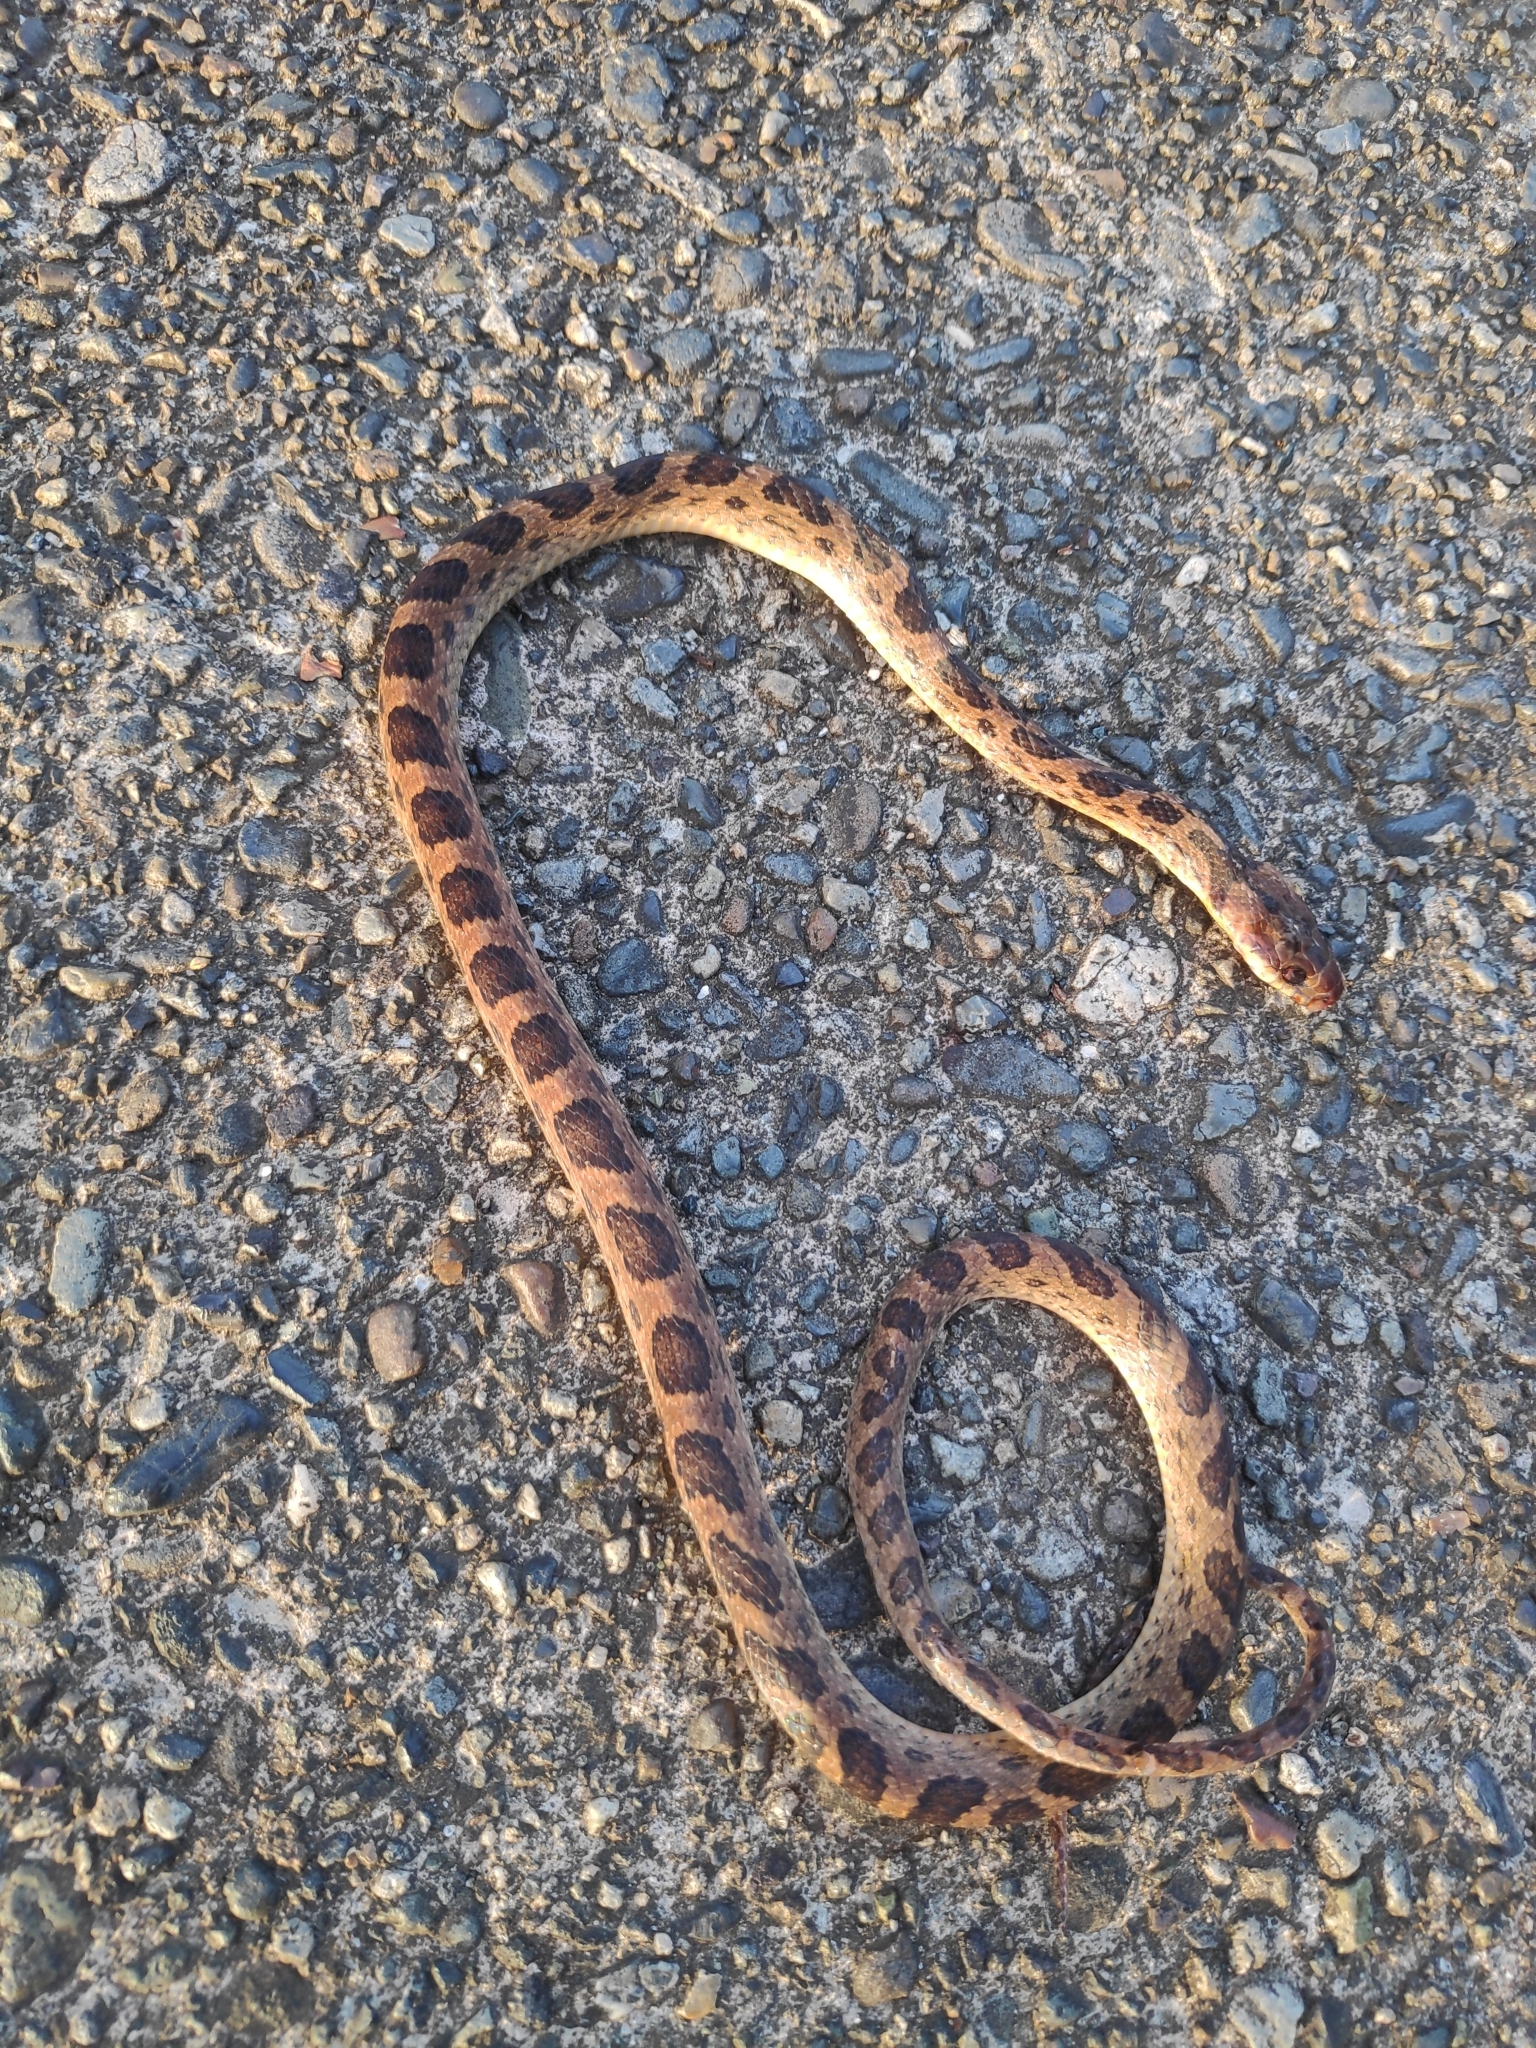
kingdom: Animalia
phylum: Chordata
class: Squamata
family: Colubridae
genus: Leptodeira
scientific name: Leptodeira rhombifera
